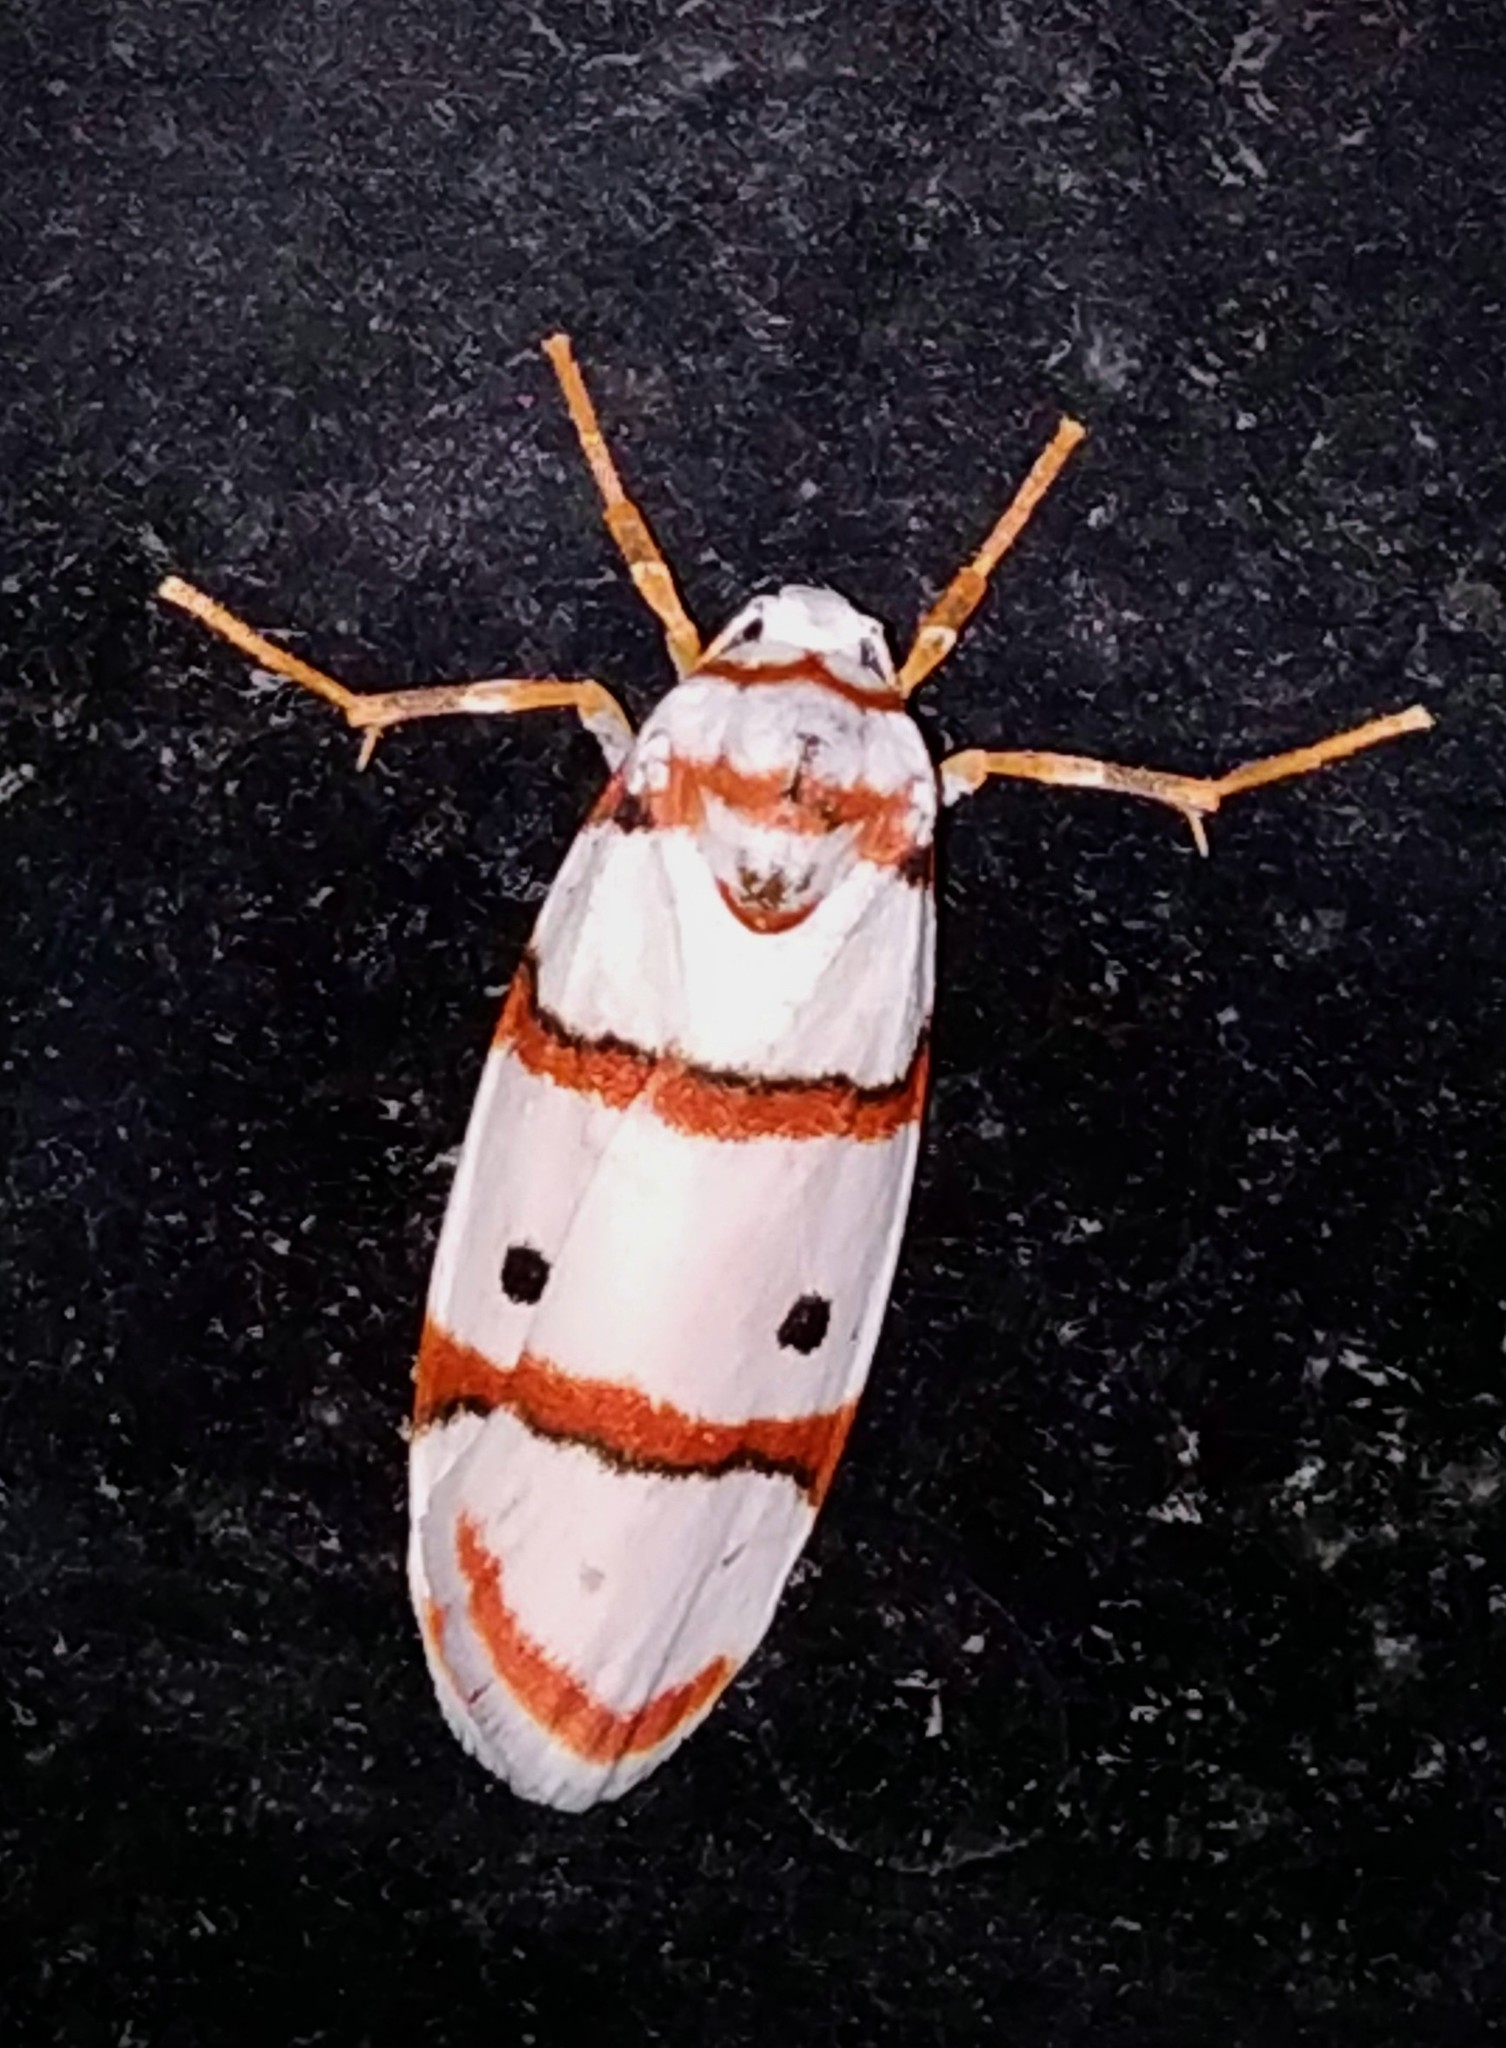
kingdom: Animalia
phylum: Arthropoda
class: Insecta
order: Lepidoptera
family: Erebidae
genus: Cyana
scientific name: Cyana peregrina
